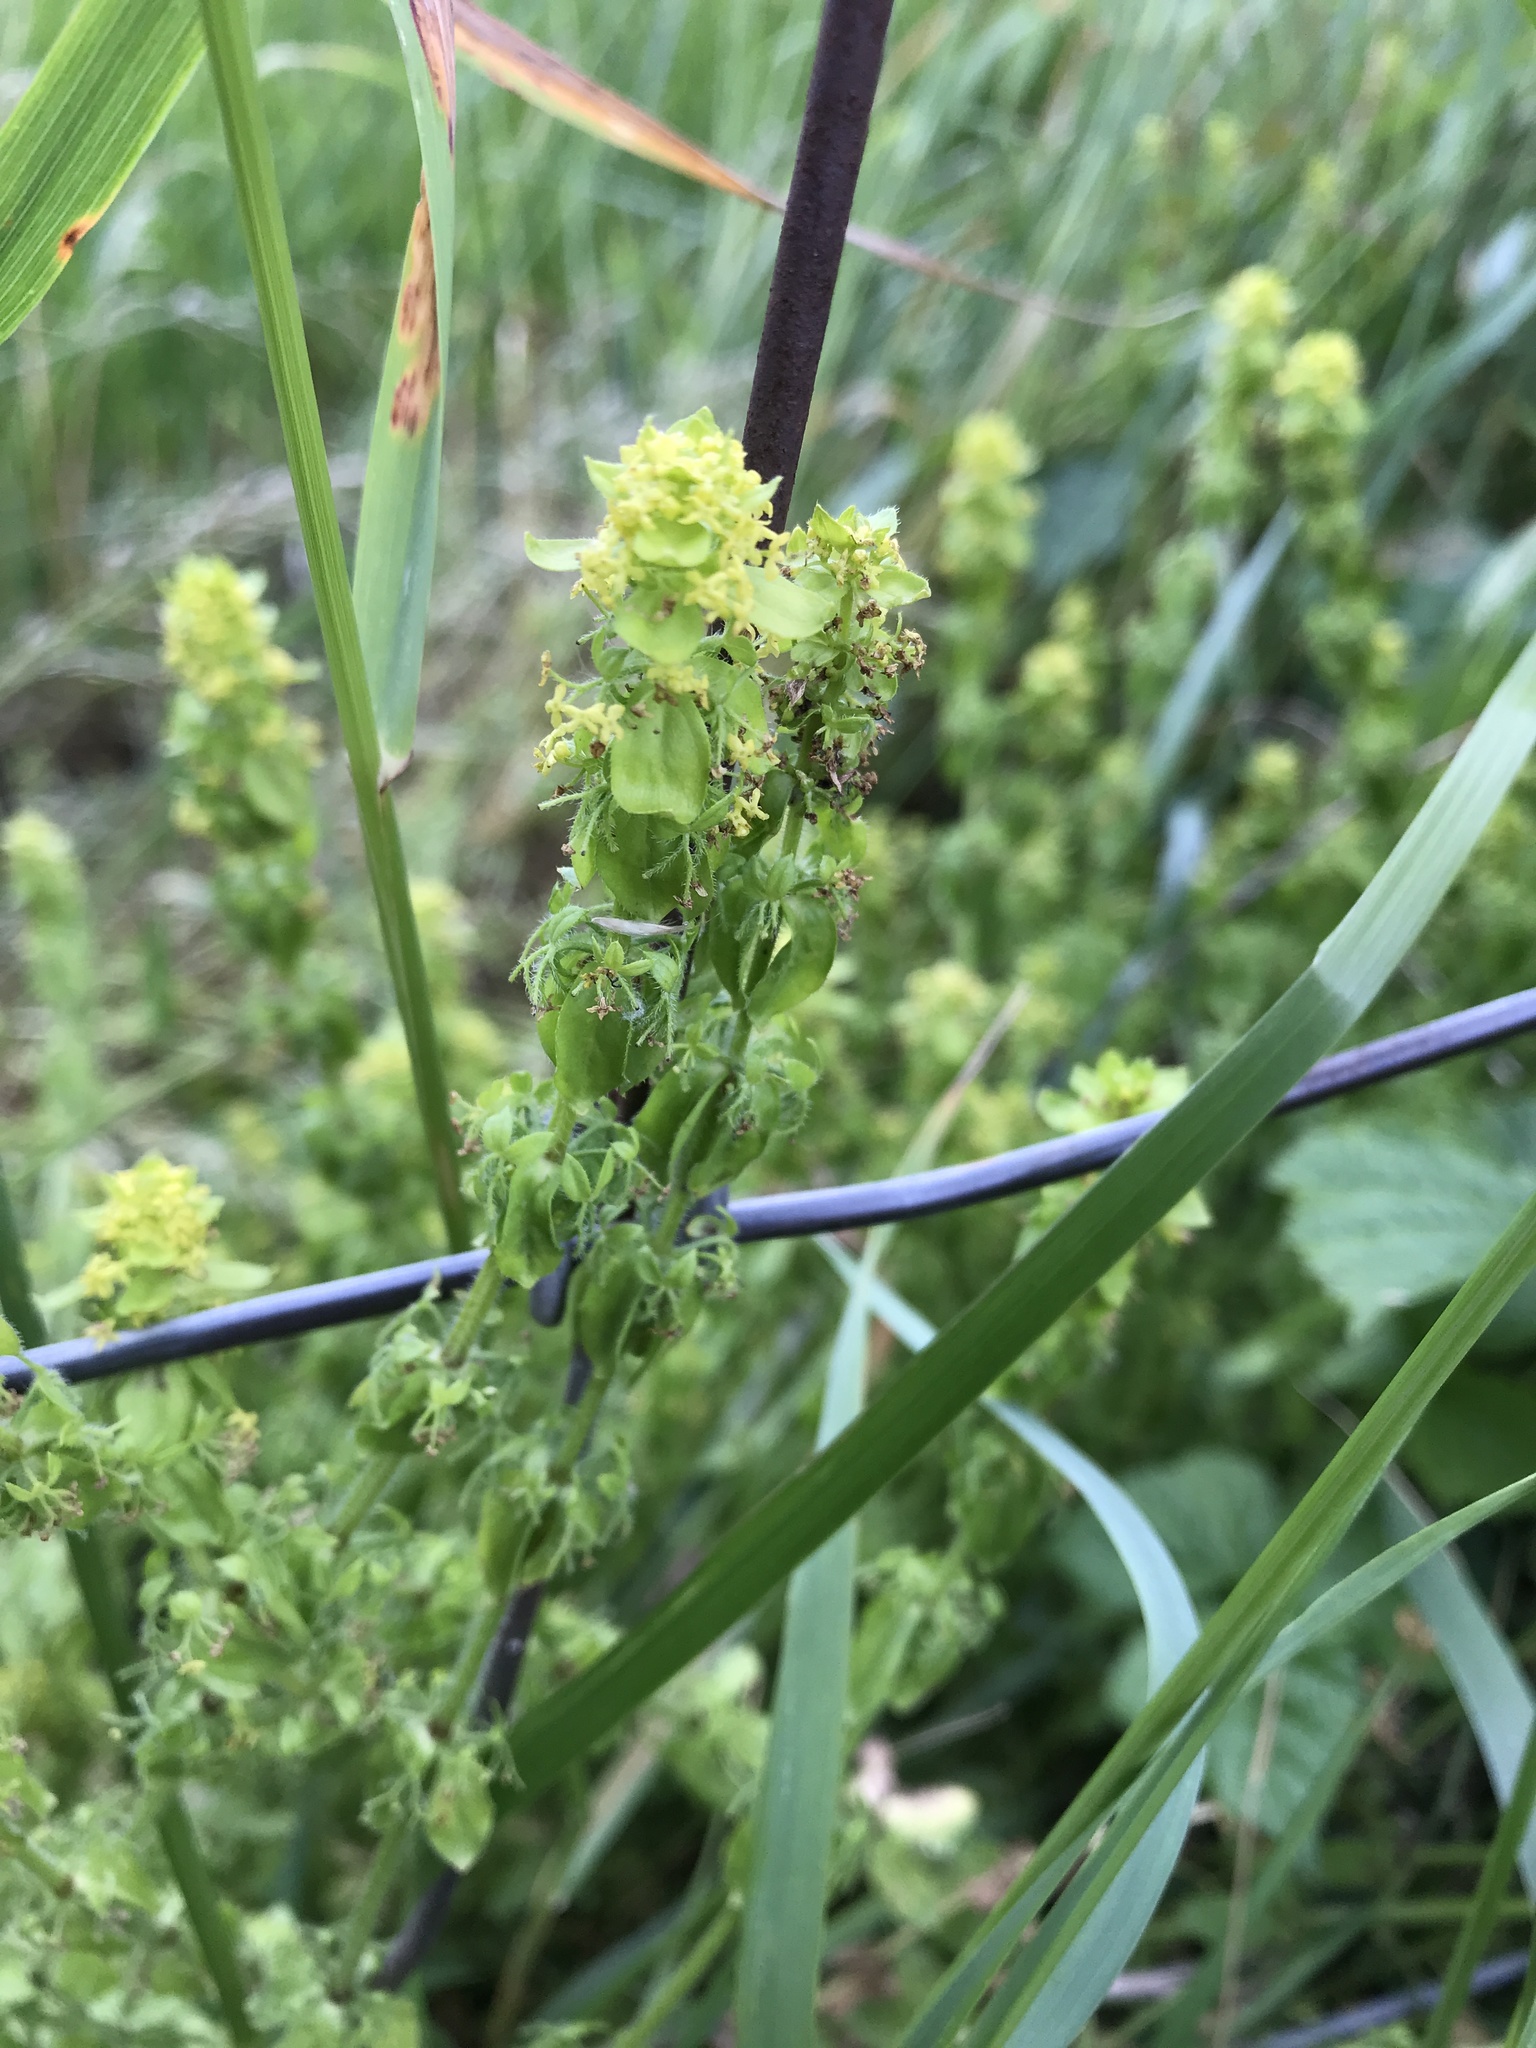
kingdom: Plantae
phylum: Tracheophyta
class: Magnoliopsida
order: Gentianales
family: Rubiaceae
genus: Cruciata
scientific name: Cruciata laevipes
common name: Crosswort
